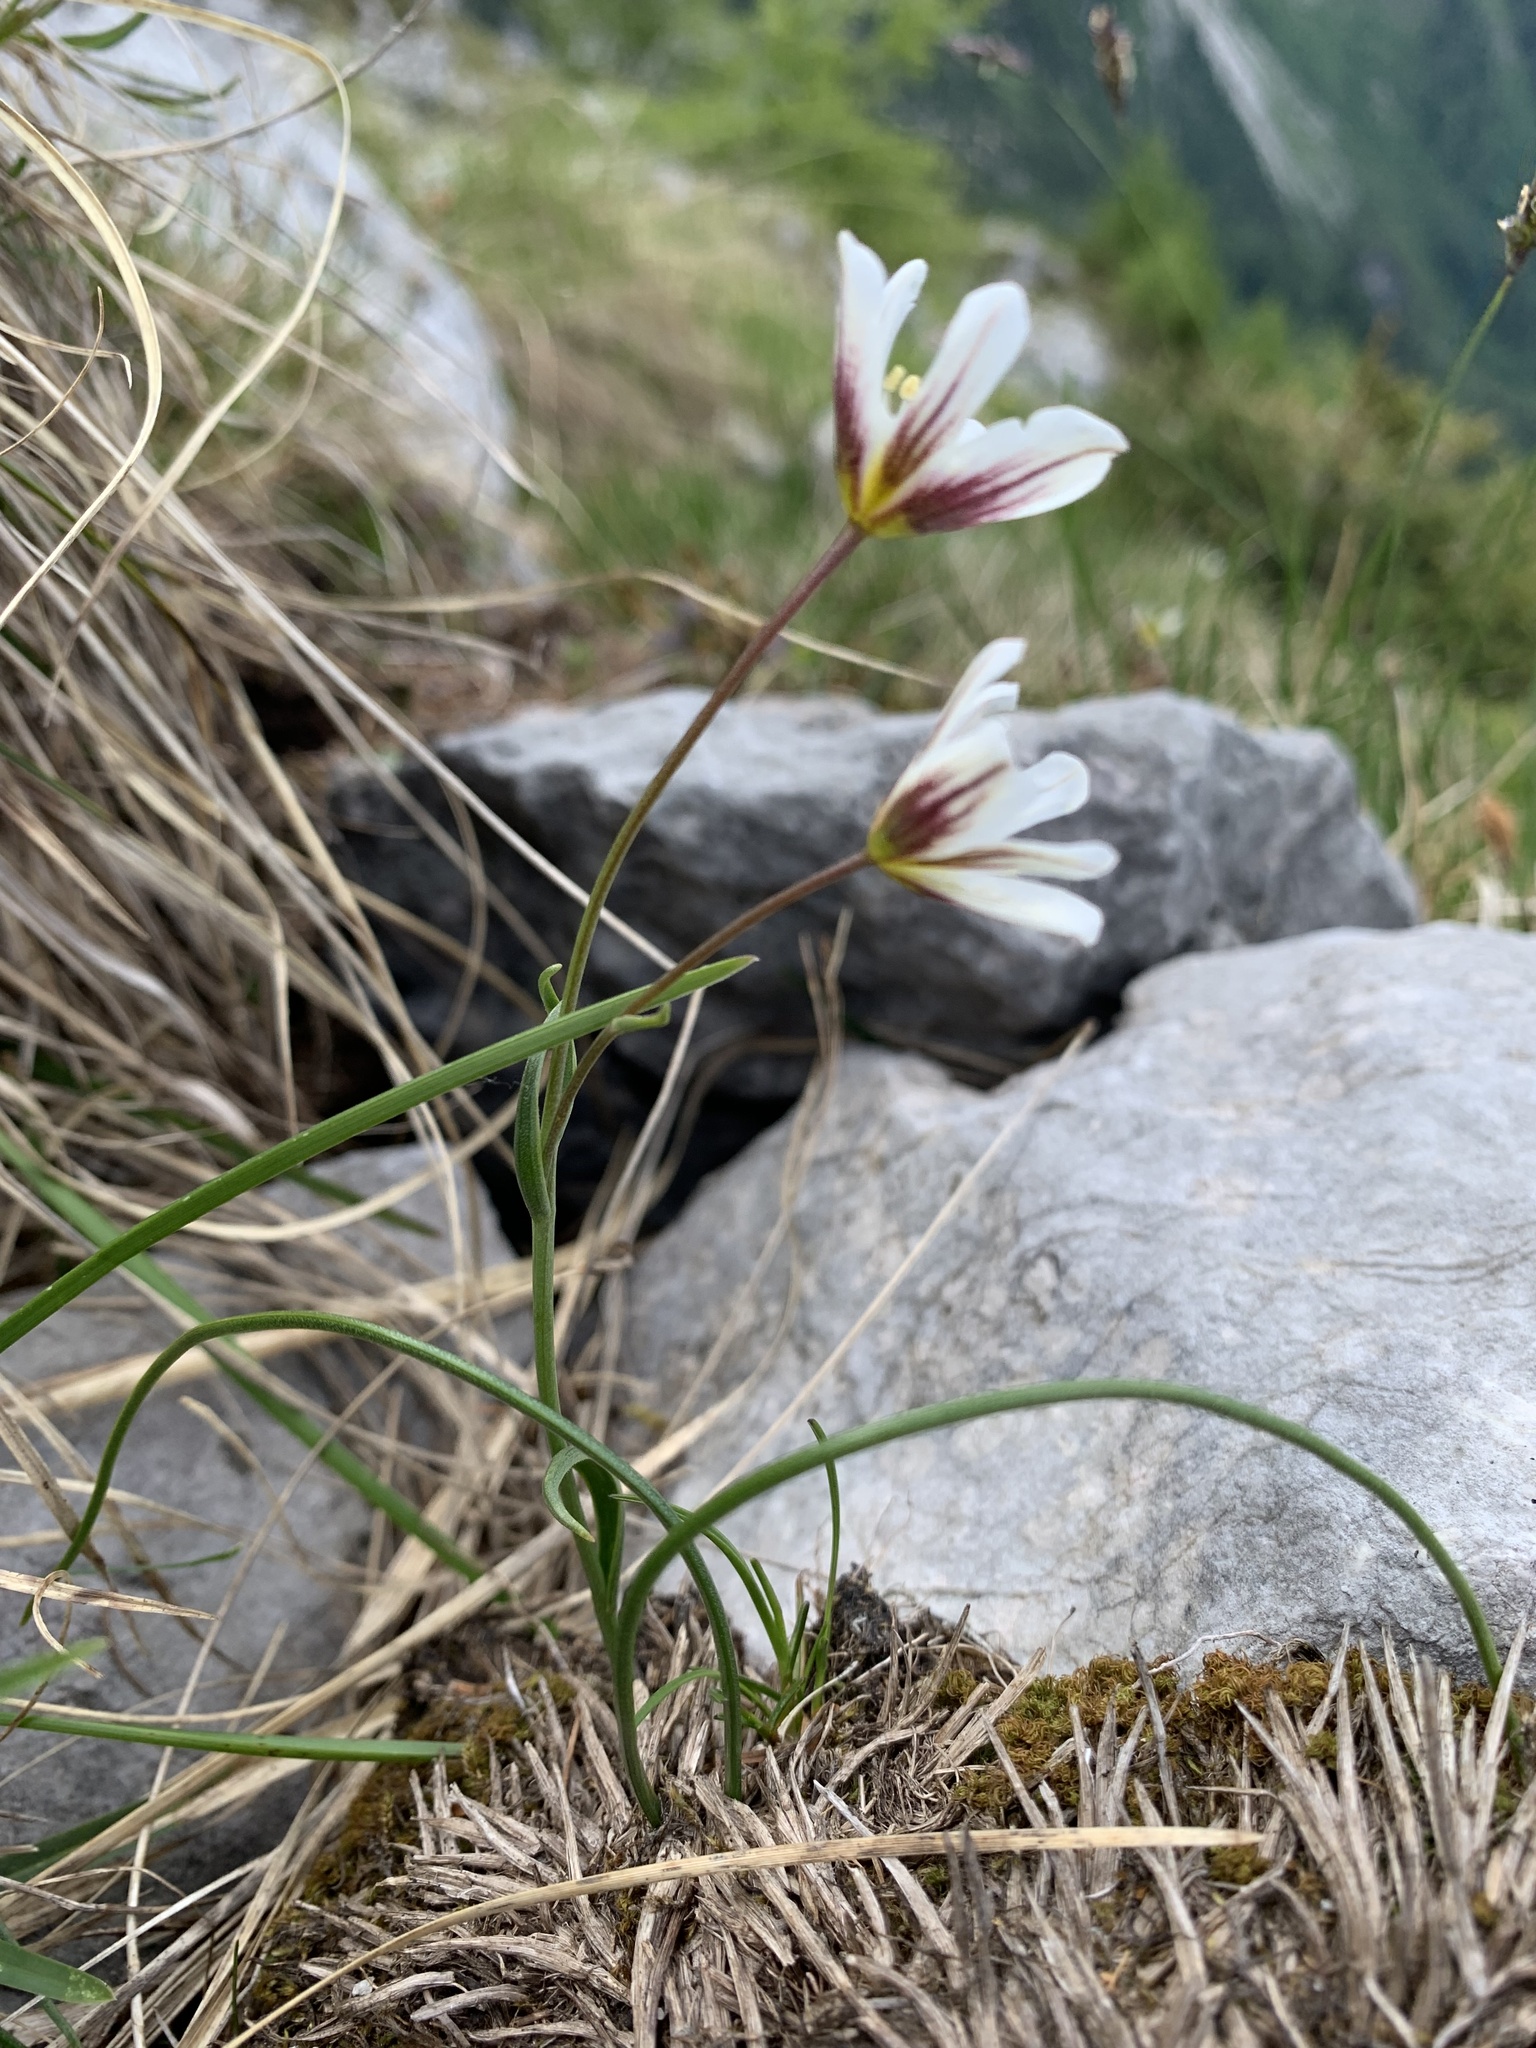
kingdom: Plantae
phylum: Tracheophyta
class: Liliopsida
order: Liliales
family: Liliaceae
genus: Gagea
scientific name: Gagea serotina
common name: Snowdon lily
